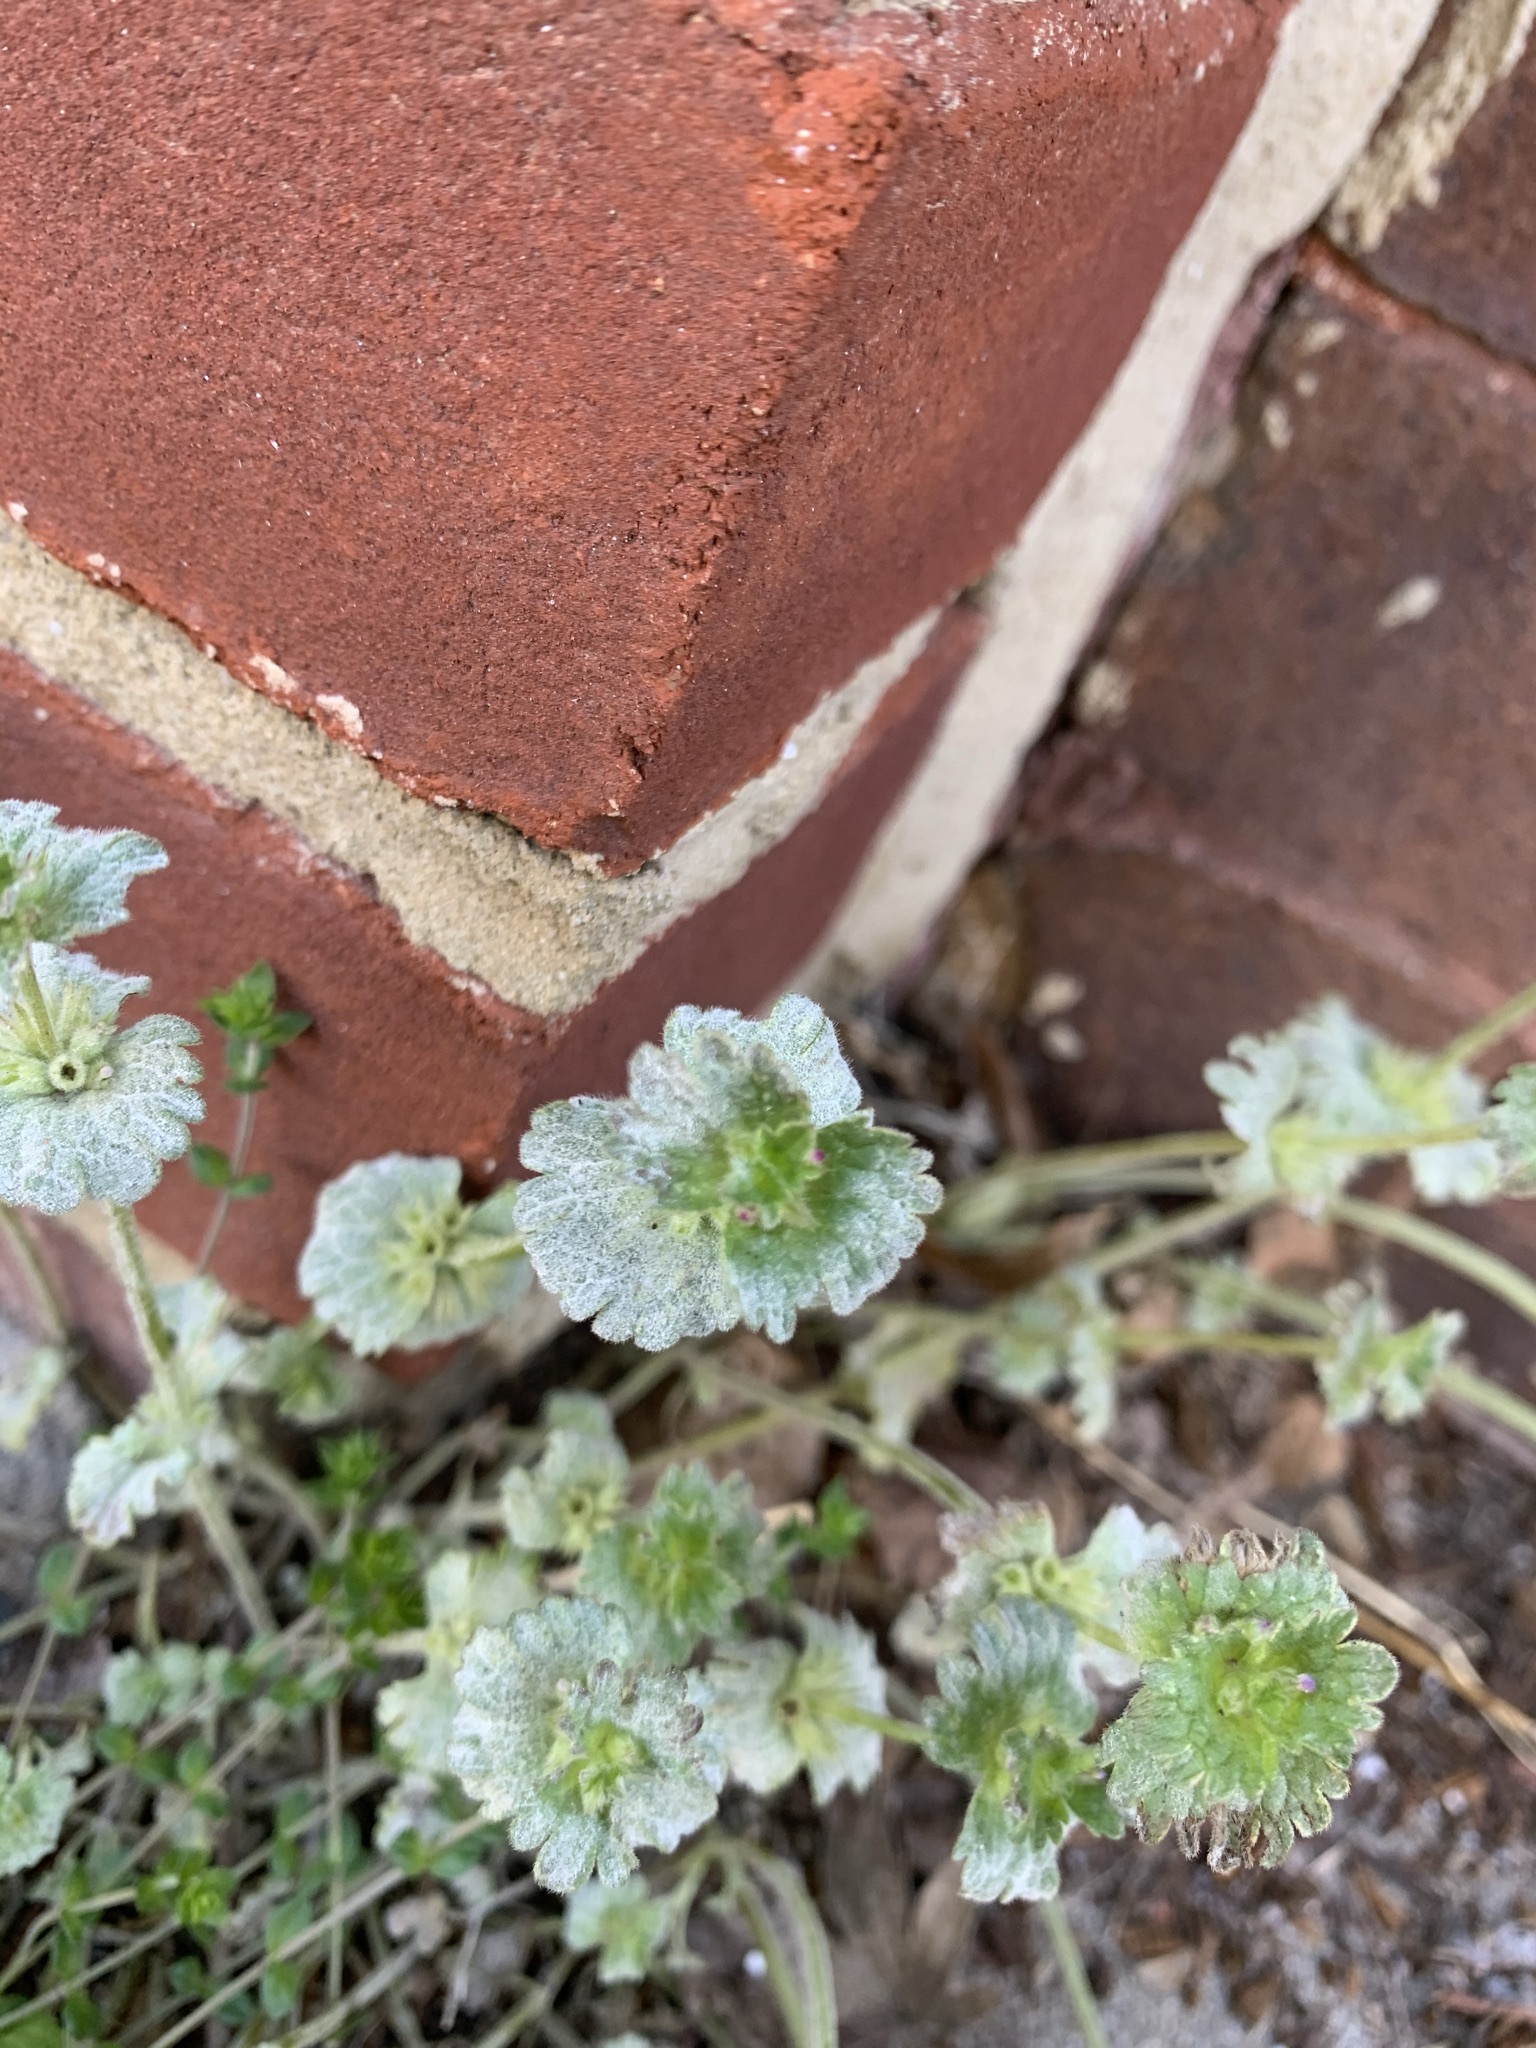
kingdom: Plantae
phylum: Tracheophyta
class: Magnoliopsida
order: Lamiales
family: Lamiaceae
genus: Lamium
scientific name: Lamium amplexicaule
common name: Henbit dead-nettle
